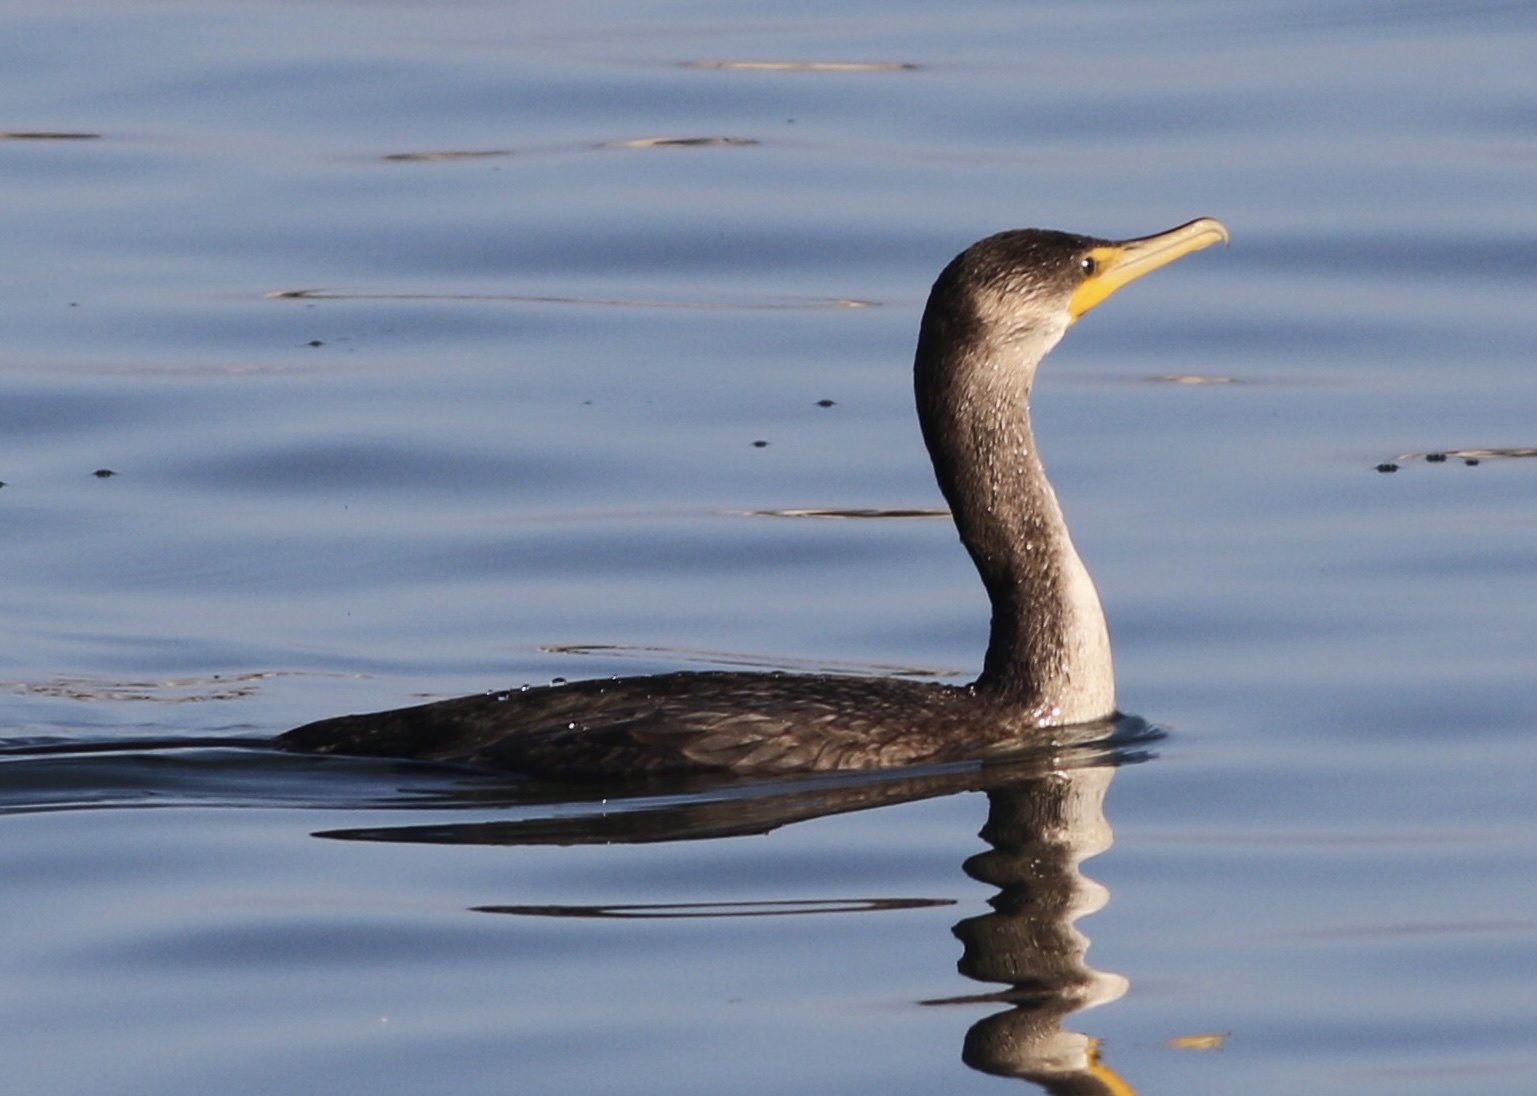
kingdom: Animalia
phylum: Chordata
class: Aves
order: Suliformes
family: Phalacrocoracidae
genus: Phalacrocorax
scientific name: Phalacrocorax auritus
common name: Double-crested cormorant
